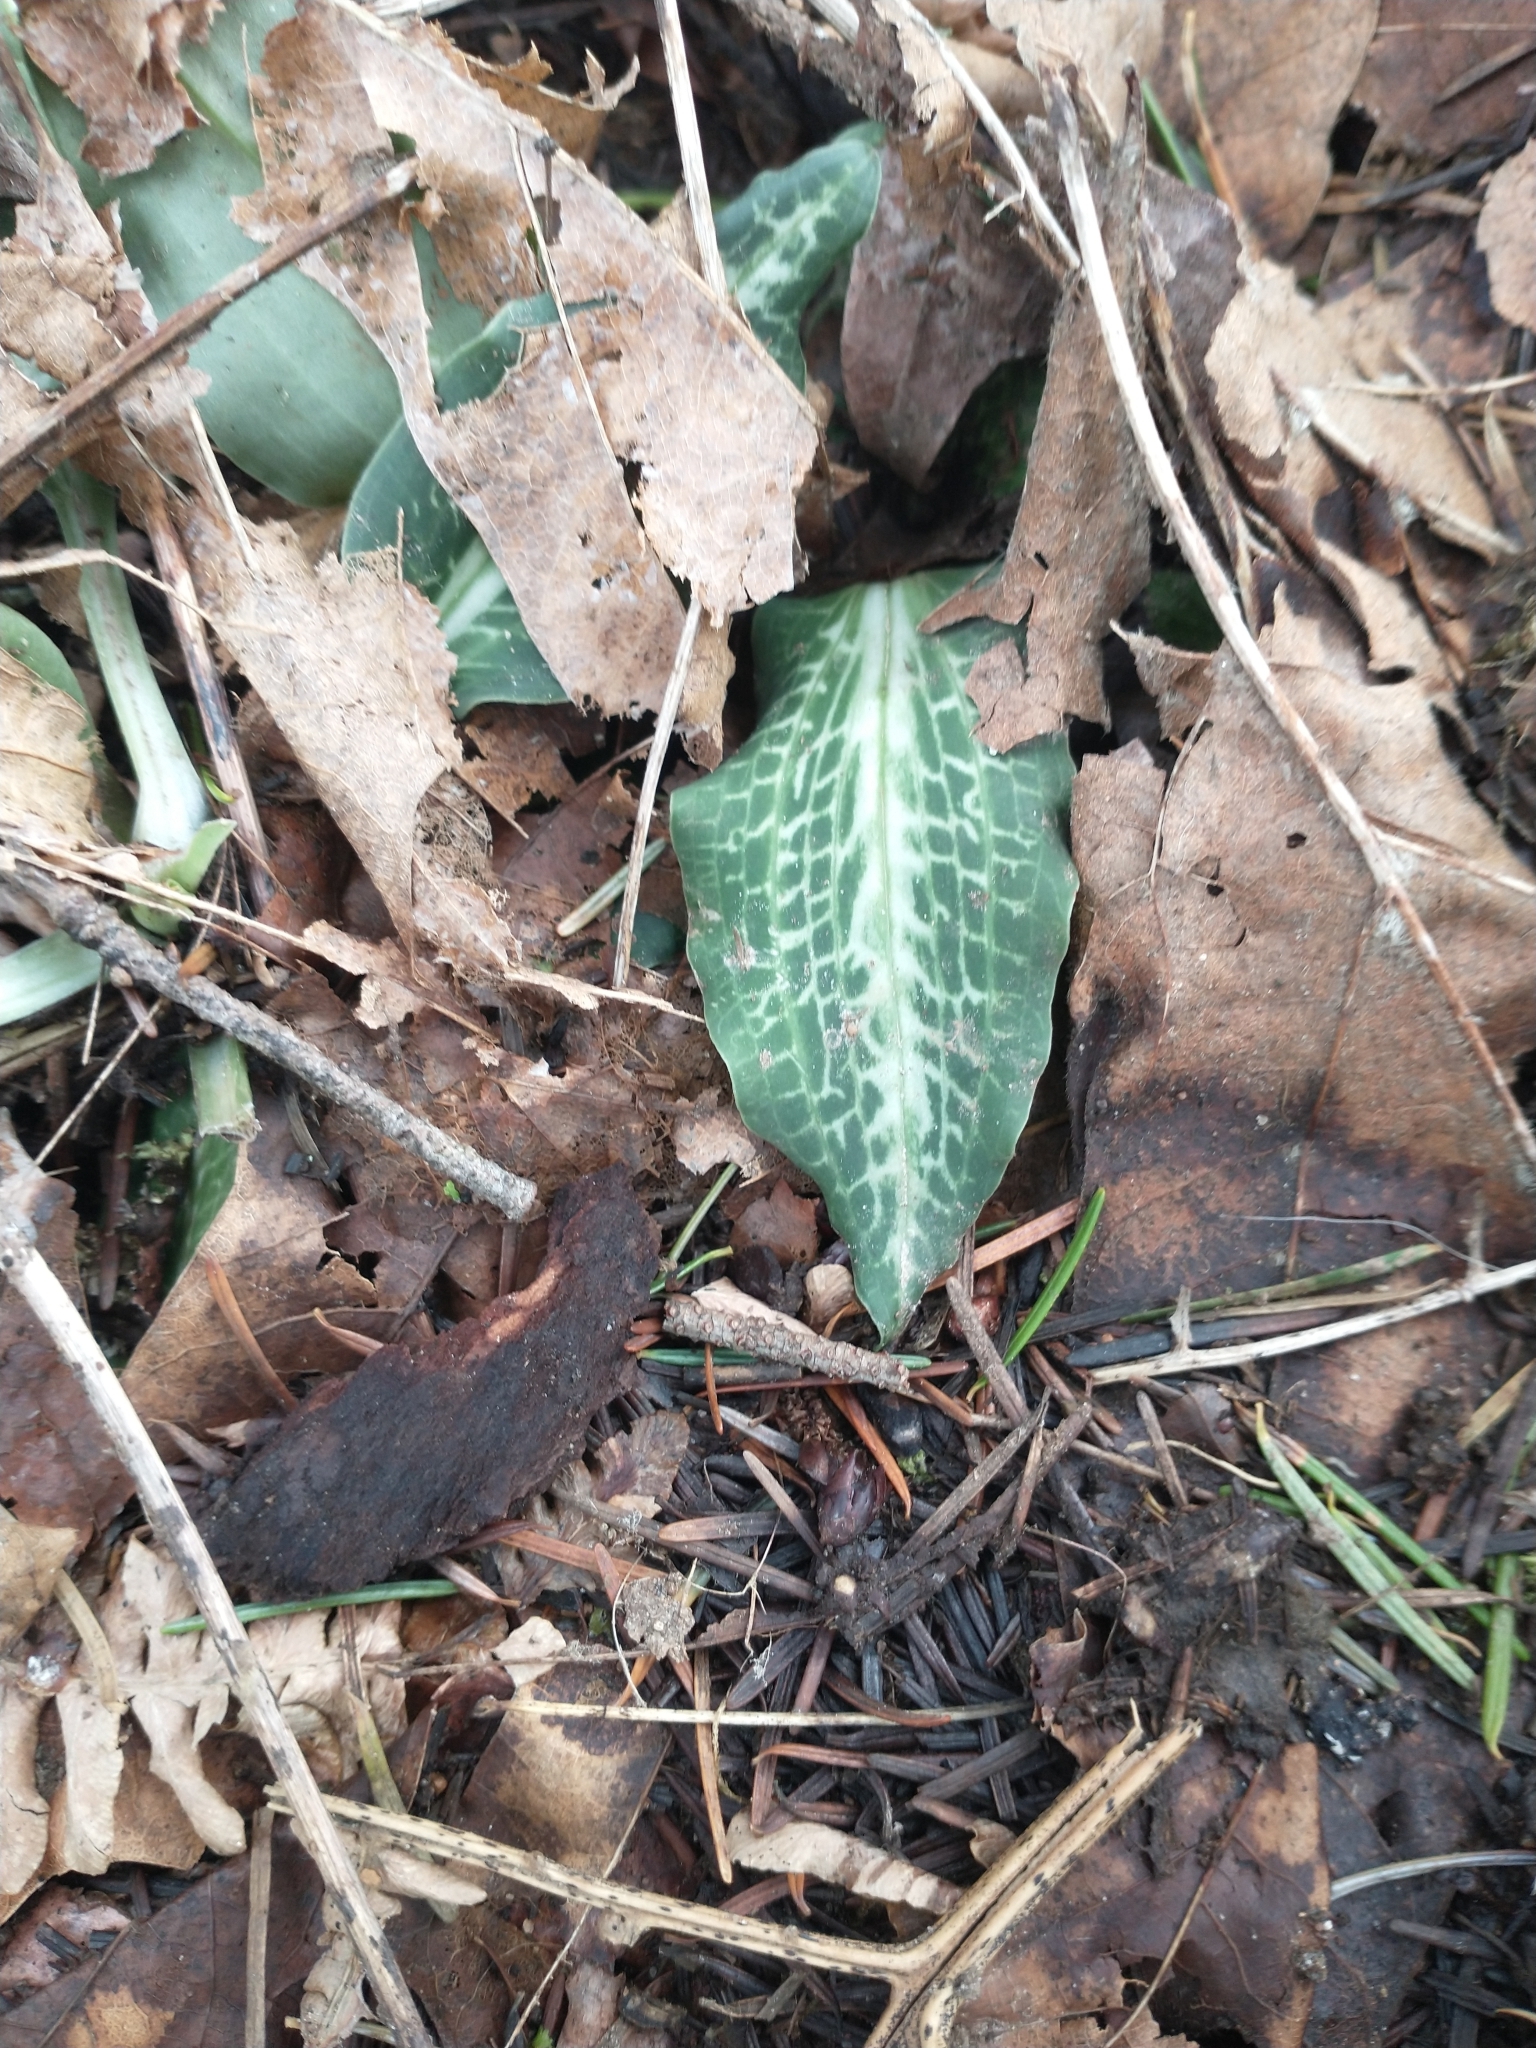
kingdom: Plantae
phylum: Tracheophyta
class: Liliopsida
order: Asparagales
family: Orchidaceae
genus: Goodyera
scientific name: Goodyera oblongifolia
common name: Giant rattlesnake-plantain
